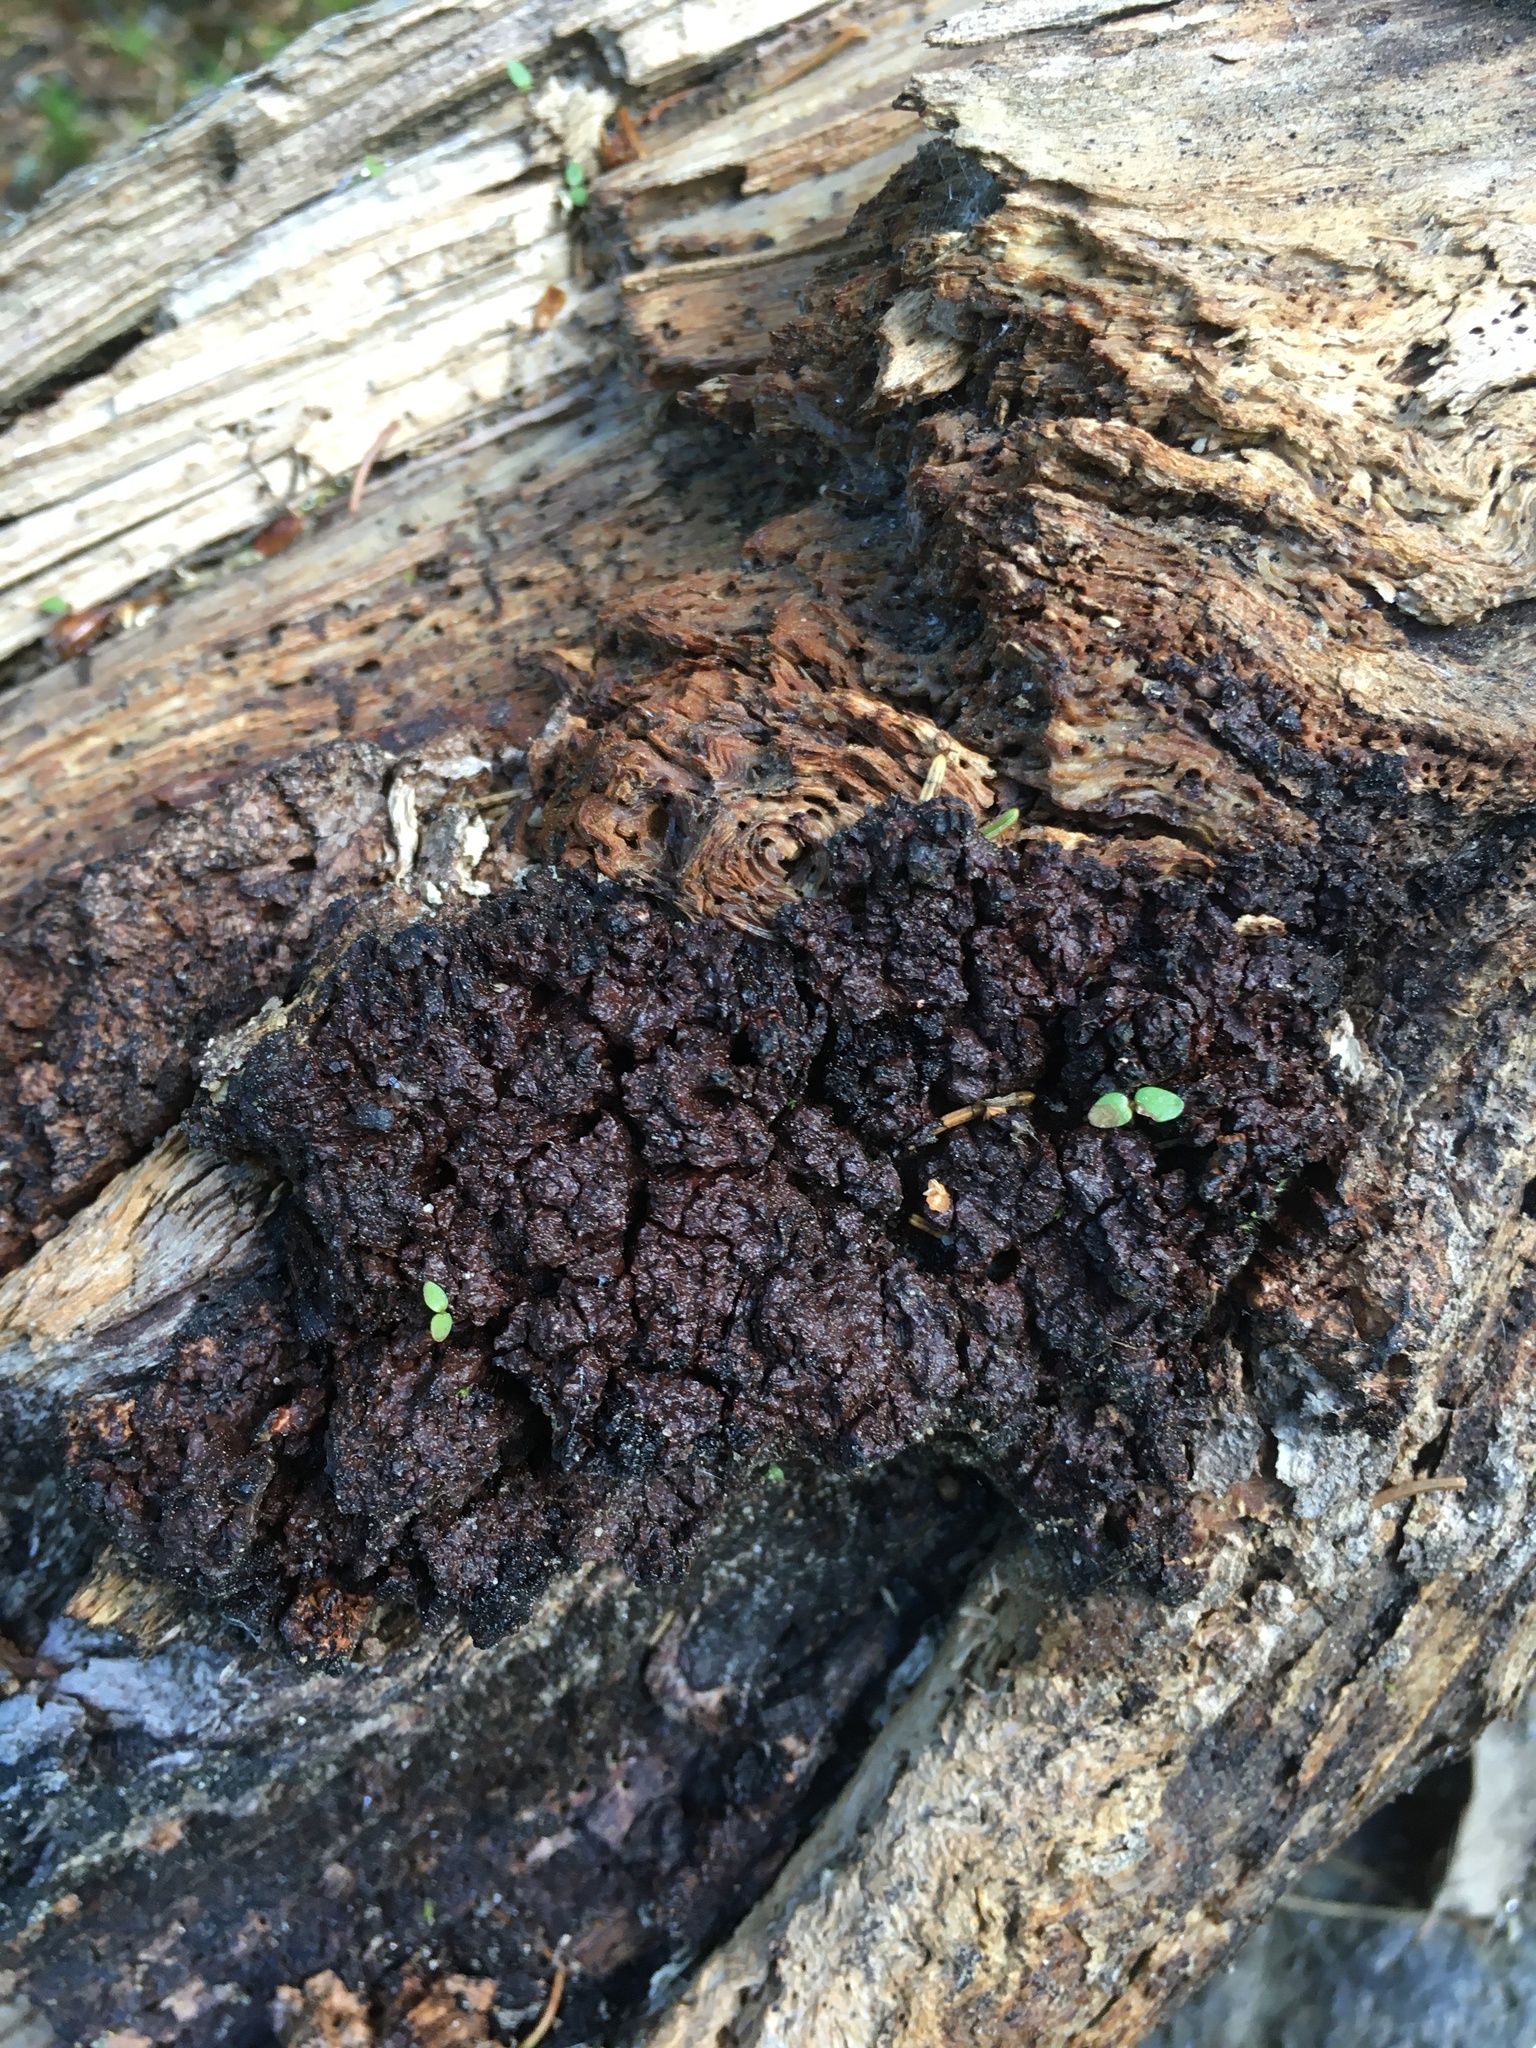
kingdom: Fungi
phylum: Basidiomycota
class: Agaricomycetes
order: Hymenochaetales
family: Hymenochaetaceae
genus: Inonotus
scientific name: Inonotus obliquus
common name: Chaga
